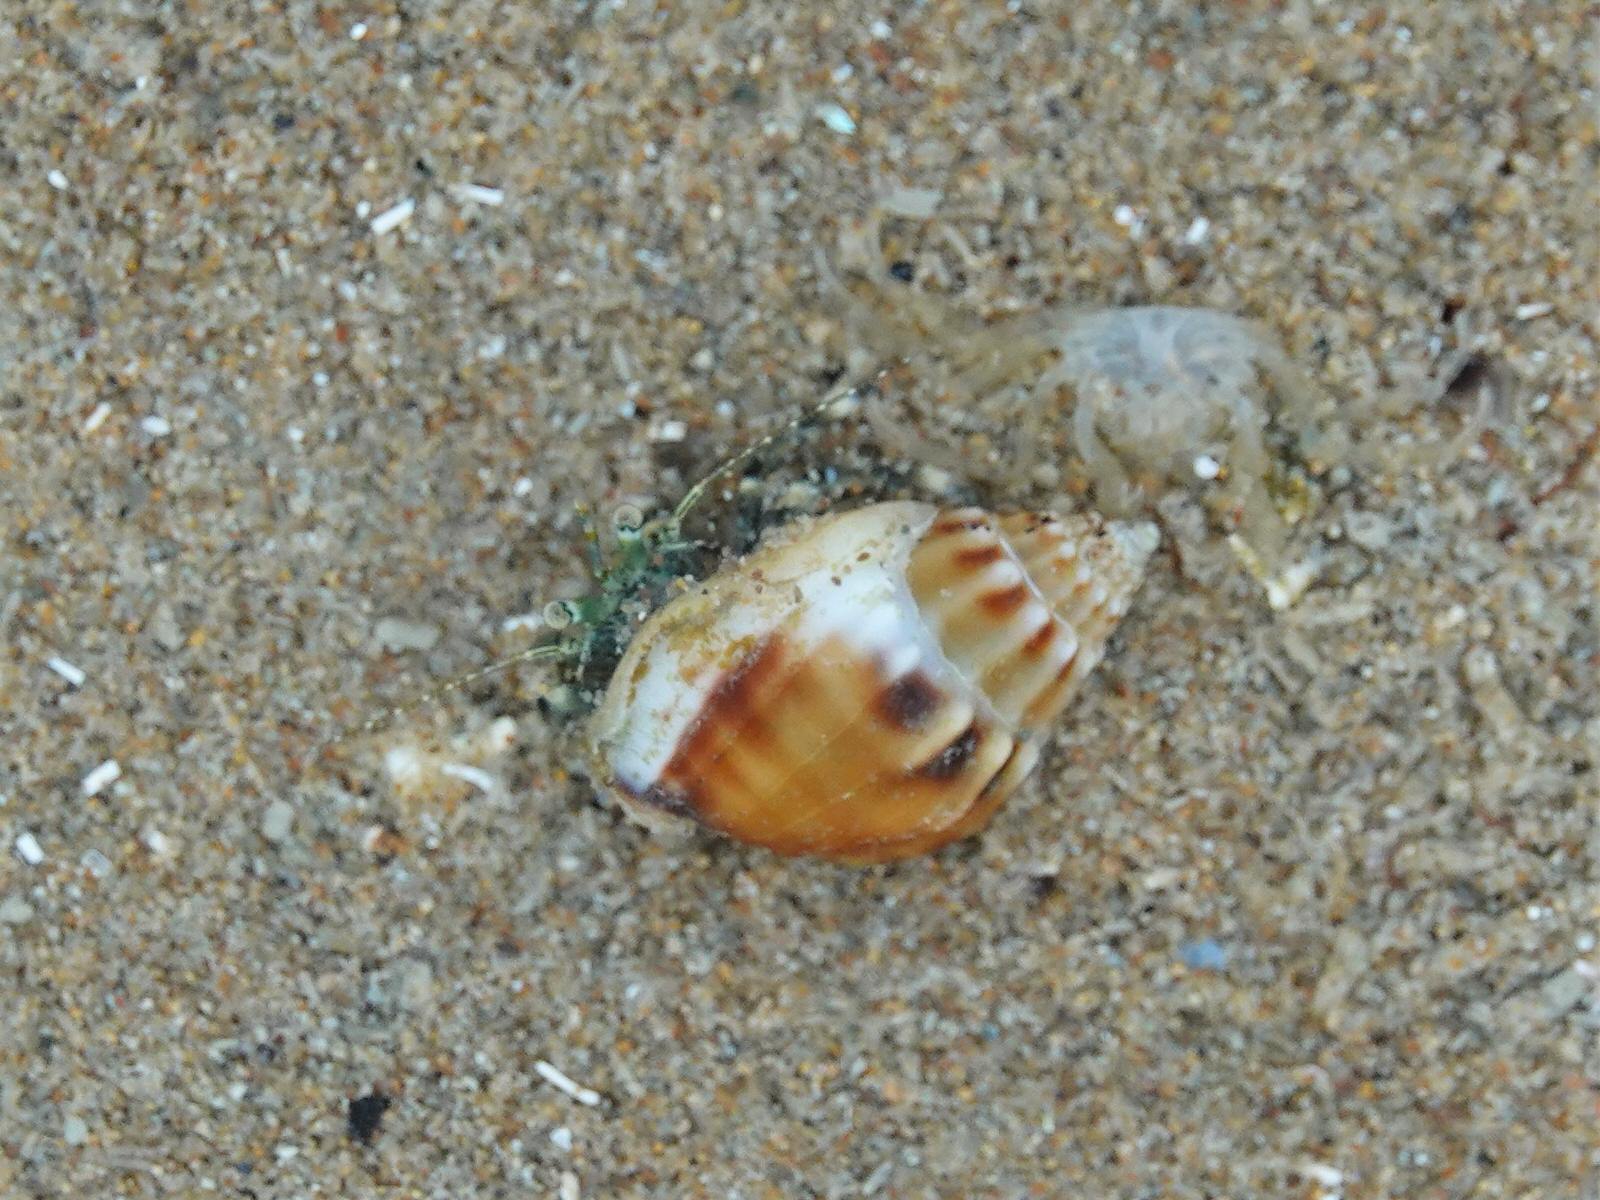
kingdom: Animalia
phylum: Arthropoda
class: Malacostraca
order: Decapoda
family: Paguridae
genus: Pagurus
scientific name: Pagurus novizealandiae
